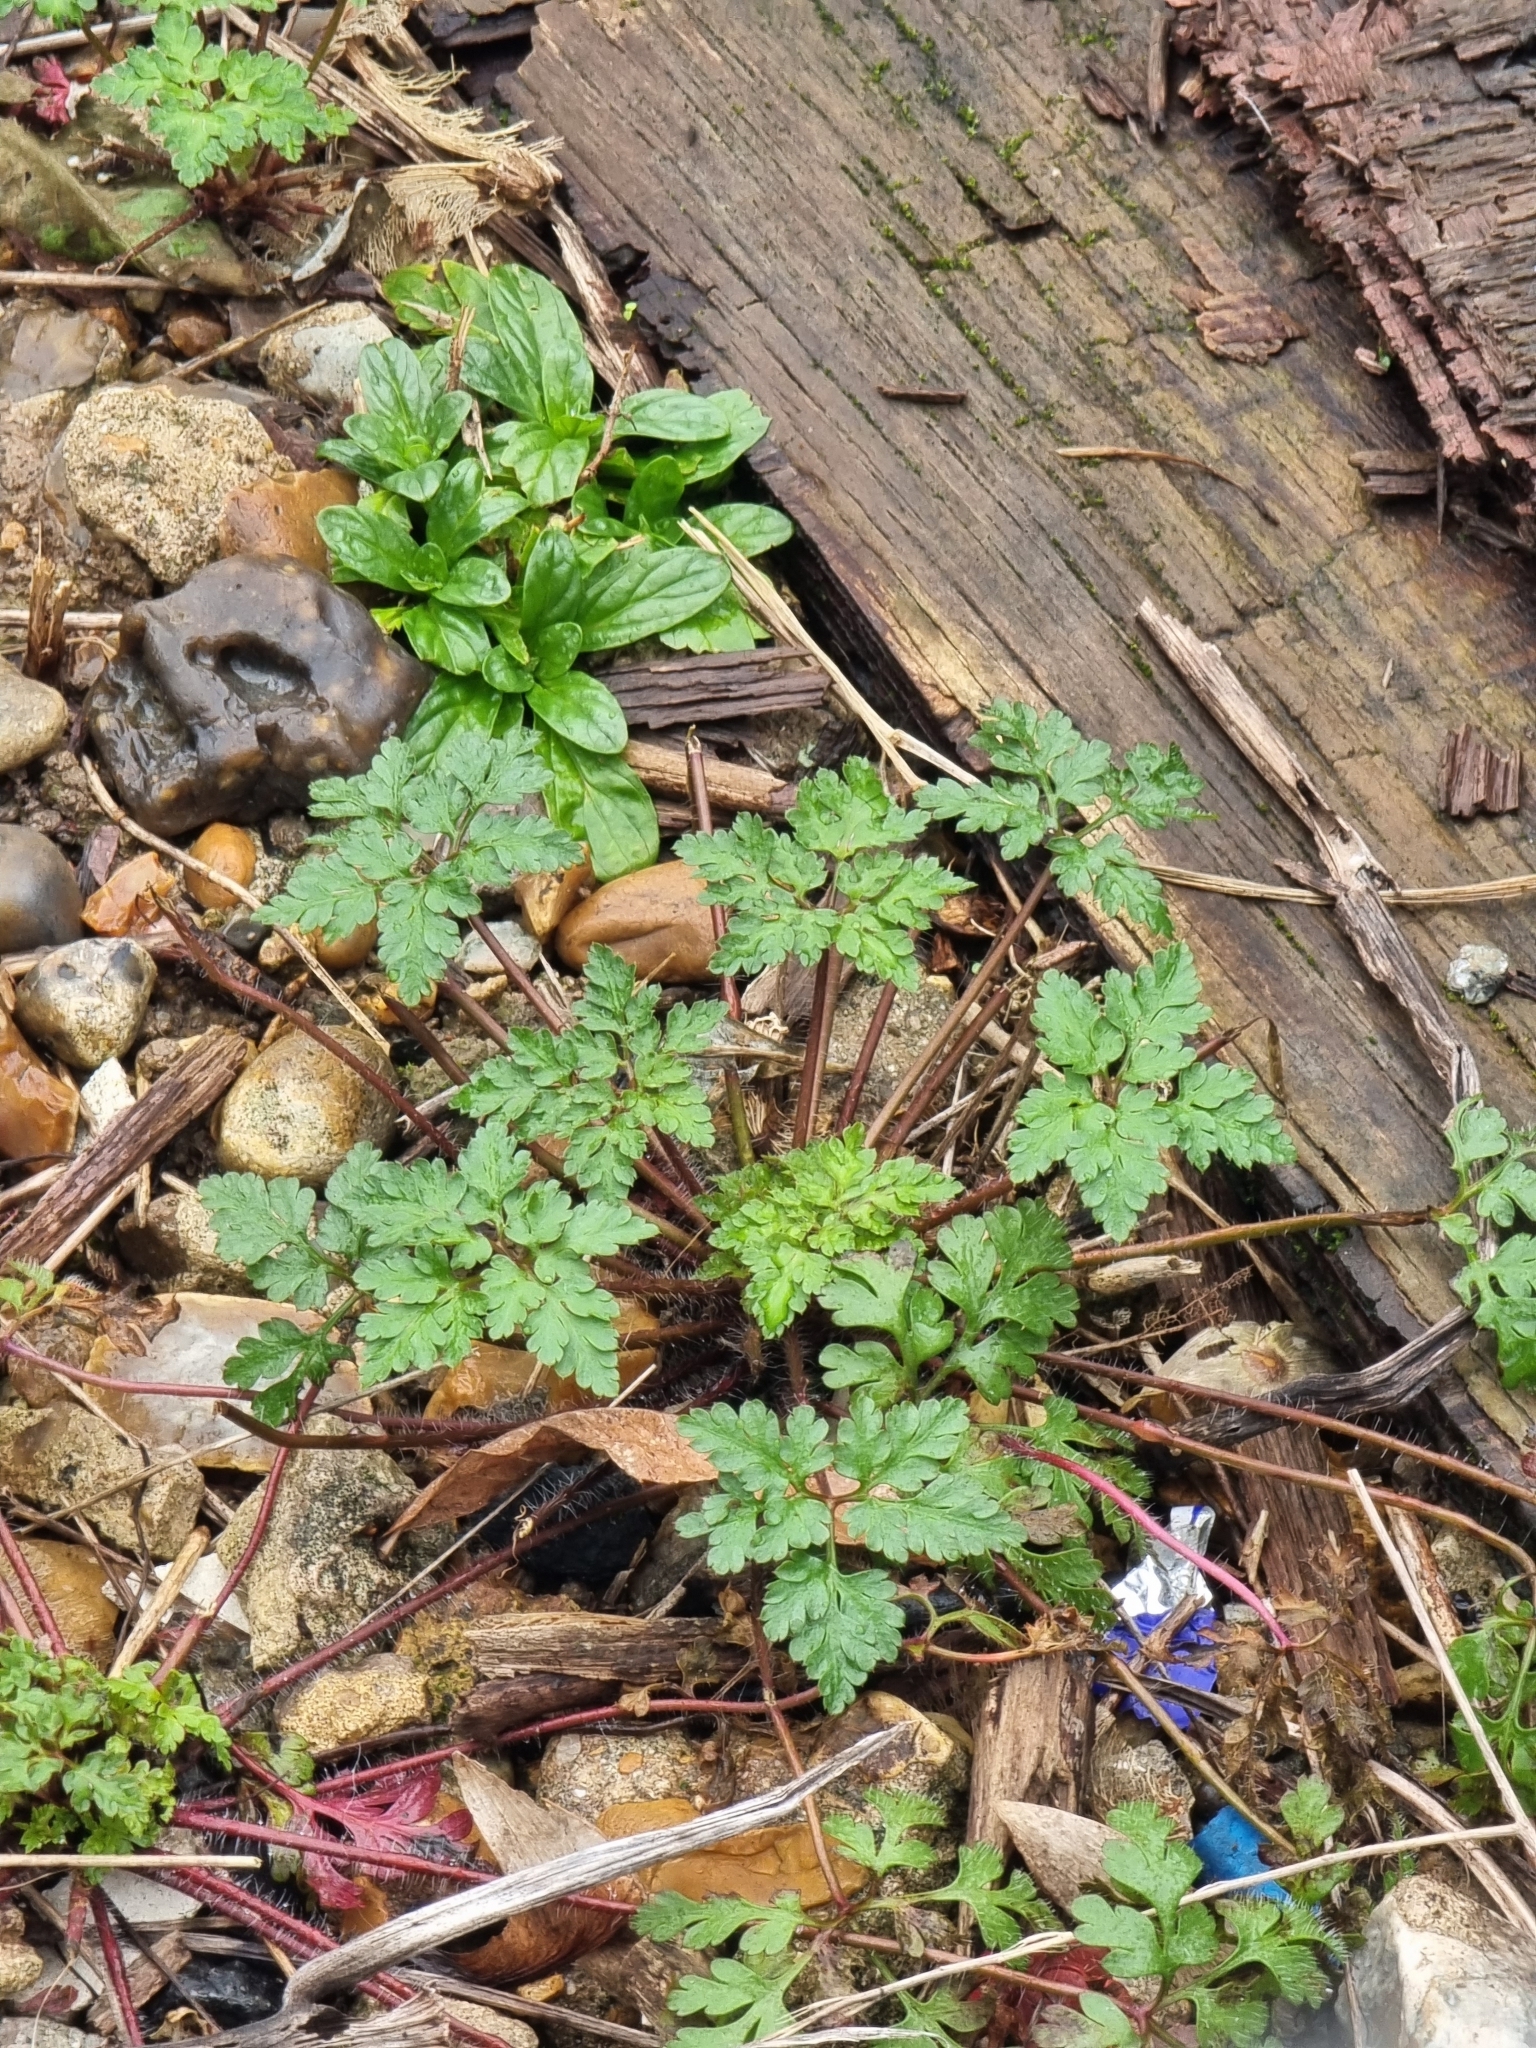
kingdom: Plantae
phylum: Tracheophyta
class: Magnoliopsida
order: Geraniales
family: Geraniaceae
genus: Geranium
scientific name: Geranium robertianum
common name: Herb-robert
